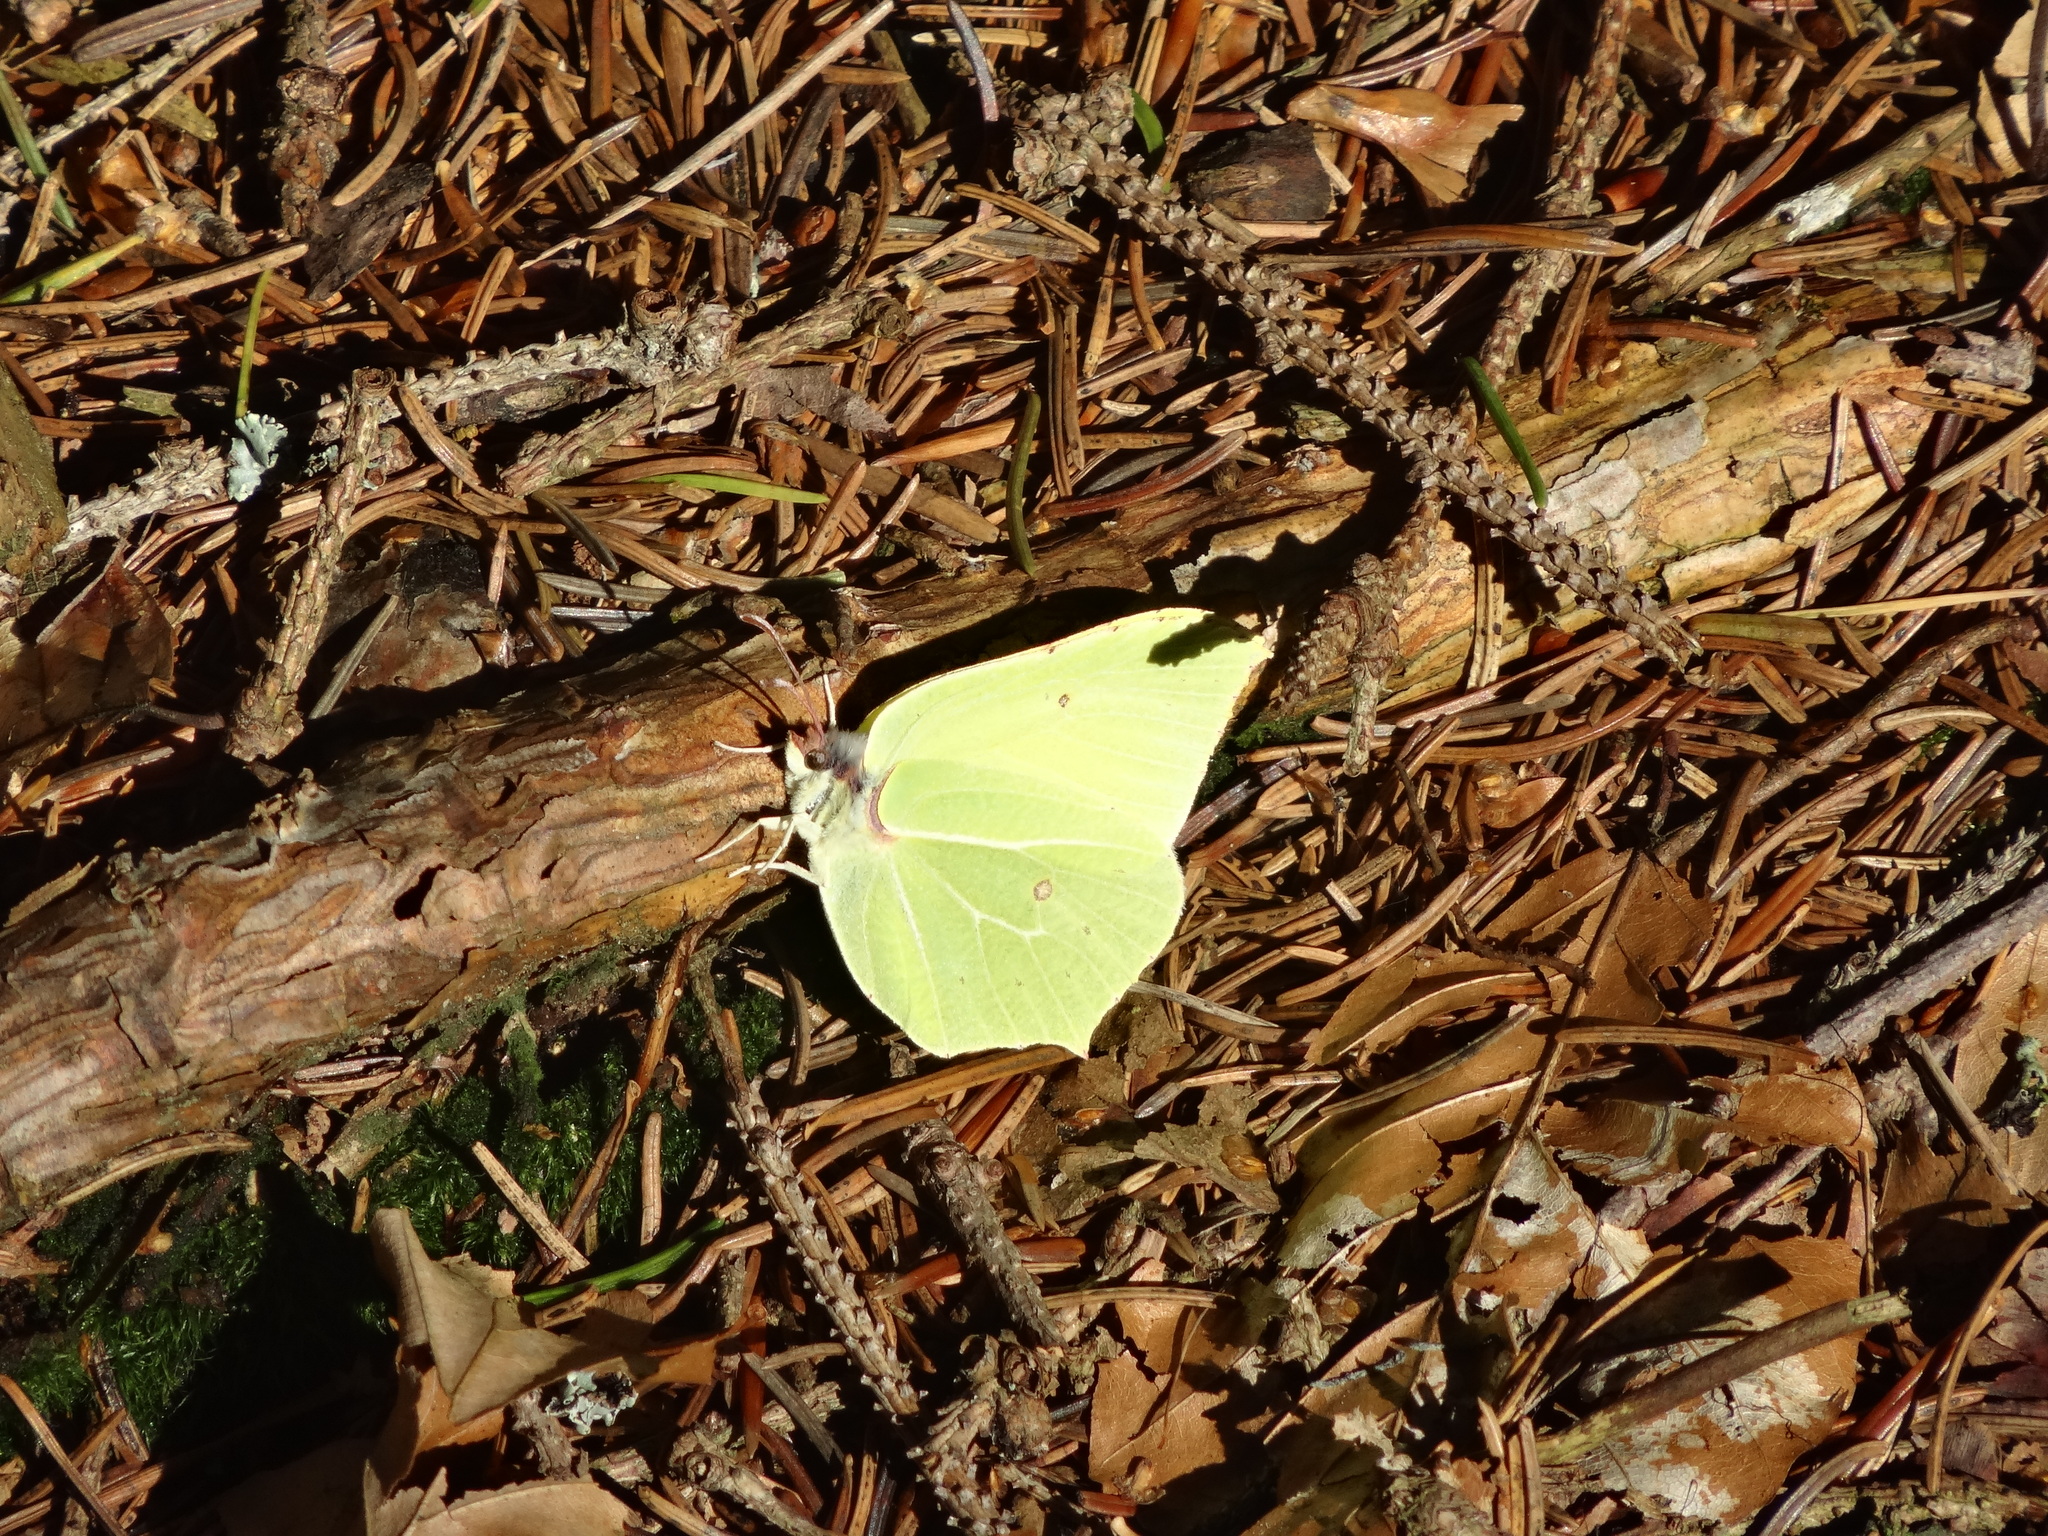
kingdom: Animalia
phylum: Arthropoda
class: Insecta
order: Lepidoptera
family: Pieridae
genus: Gonepteryx
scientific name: Gonepteryx rhamni
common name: Brimstone
